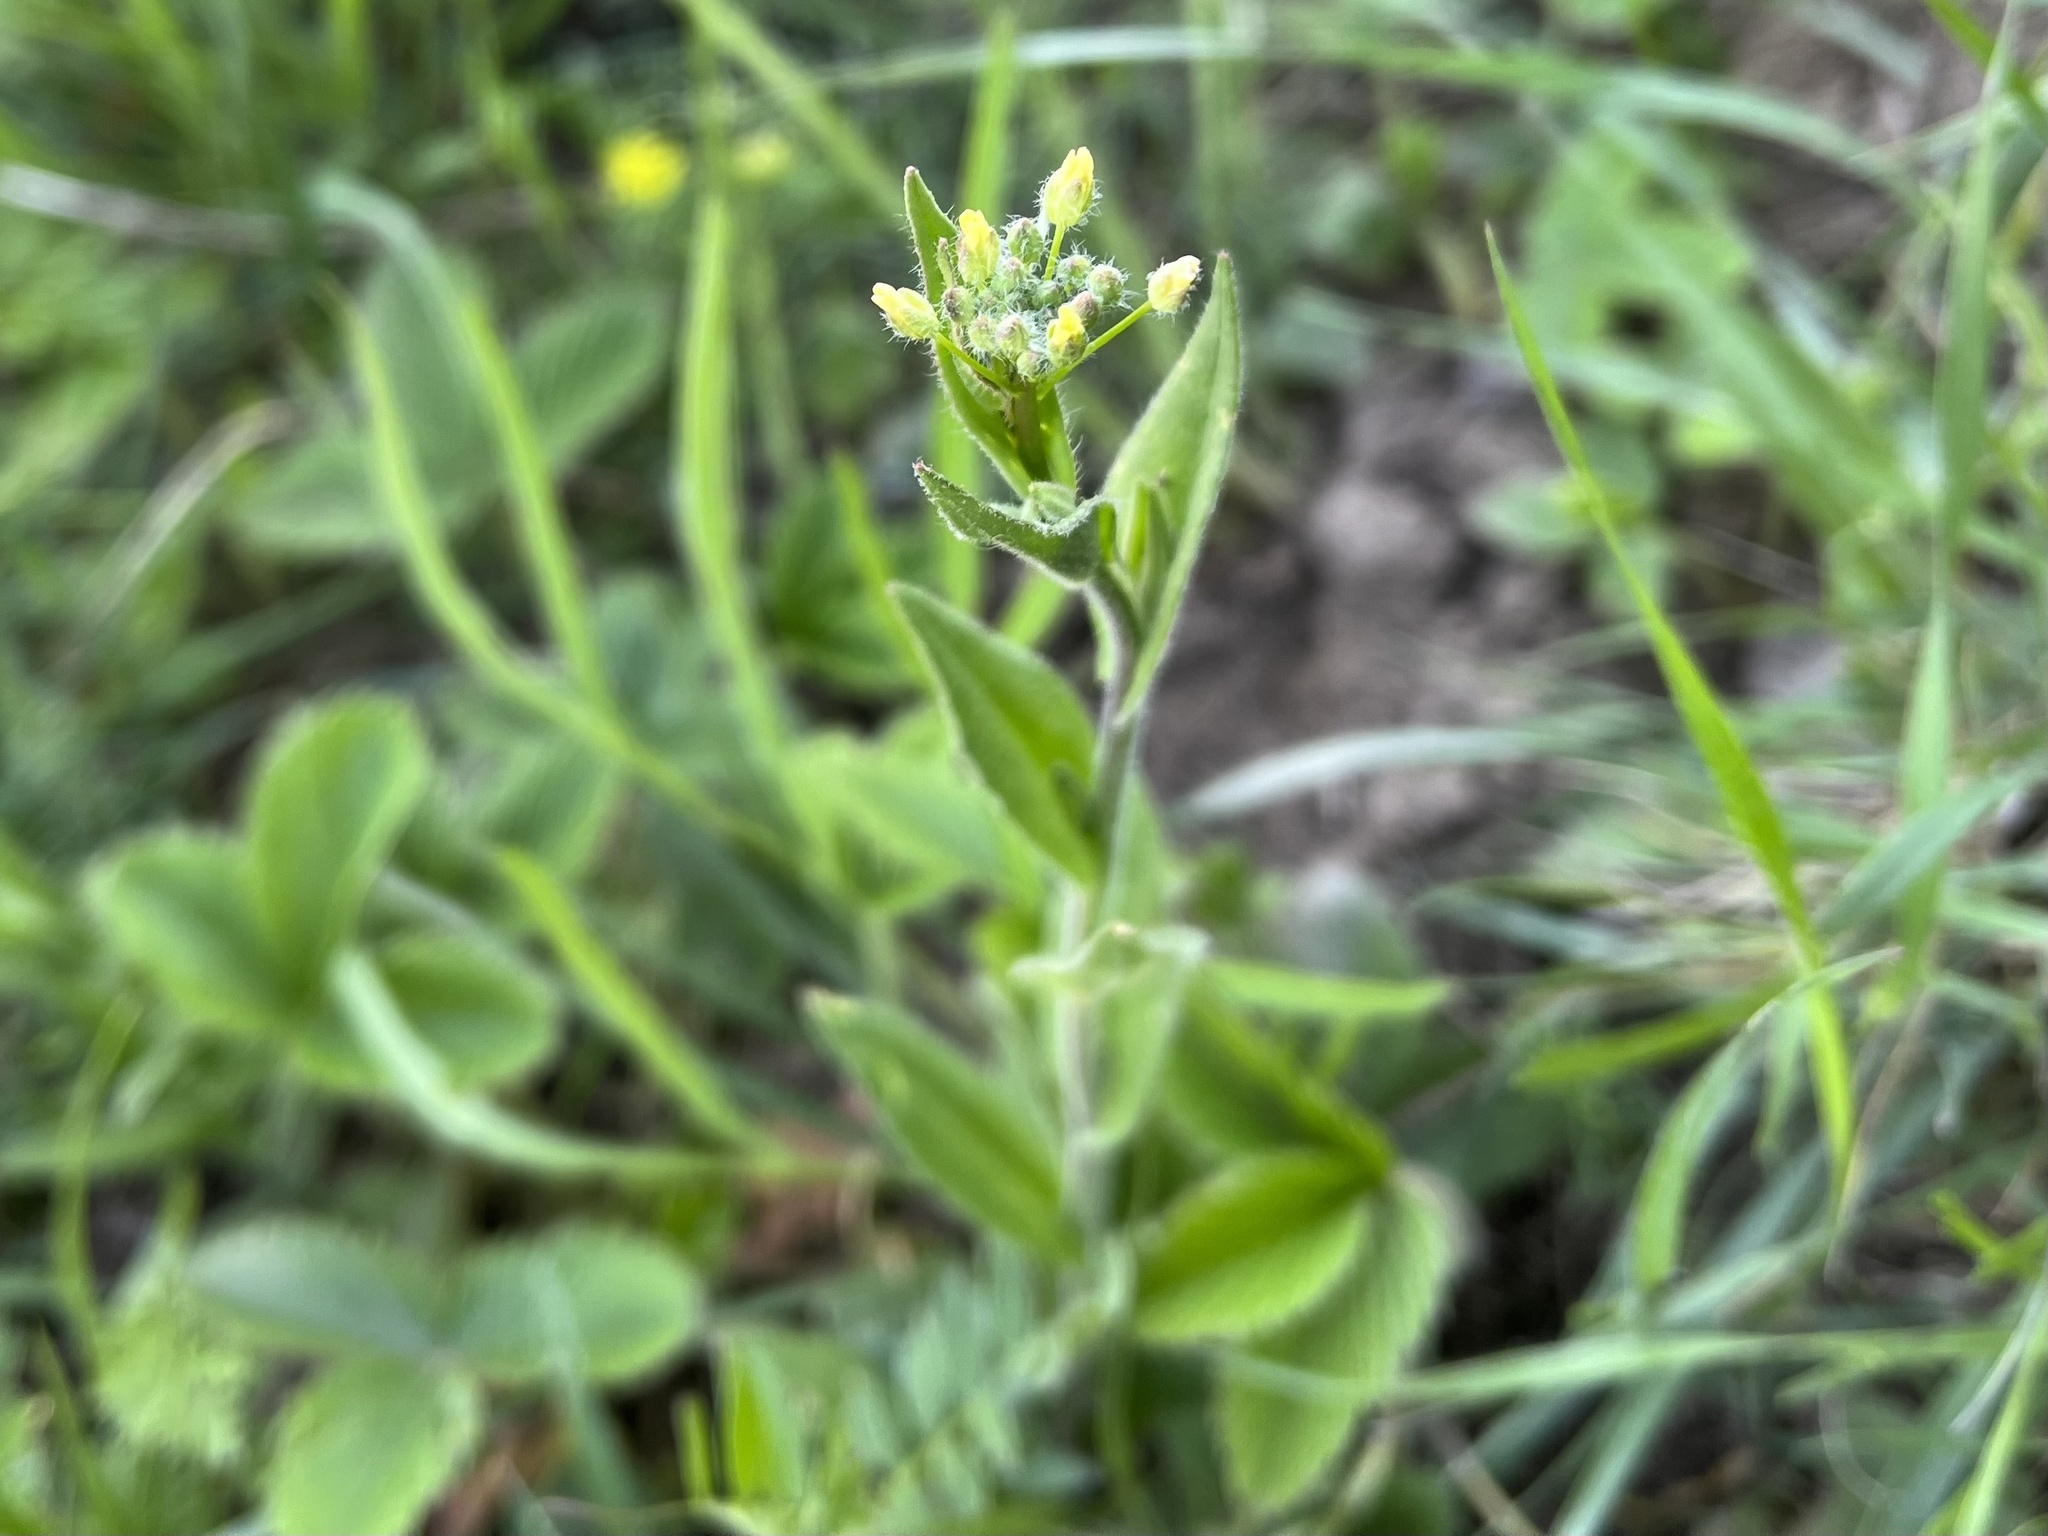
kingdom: Plantae
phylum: Tracheophyta
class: Magnoliopsida
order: Brassicales
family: Brassicaceae
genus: Camelina
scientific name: Camelina microcarpa
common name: Lesser gold-of-pleasure
